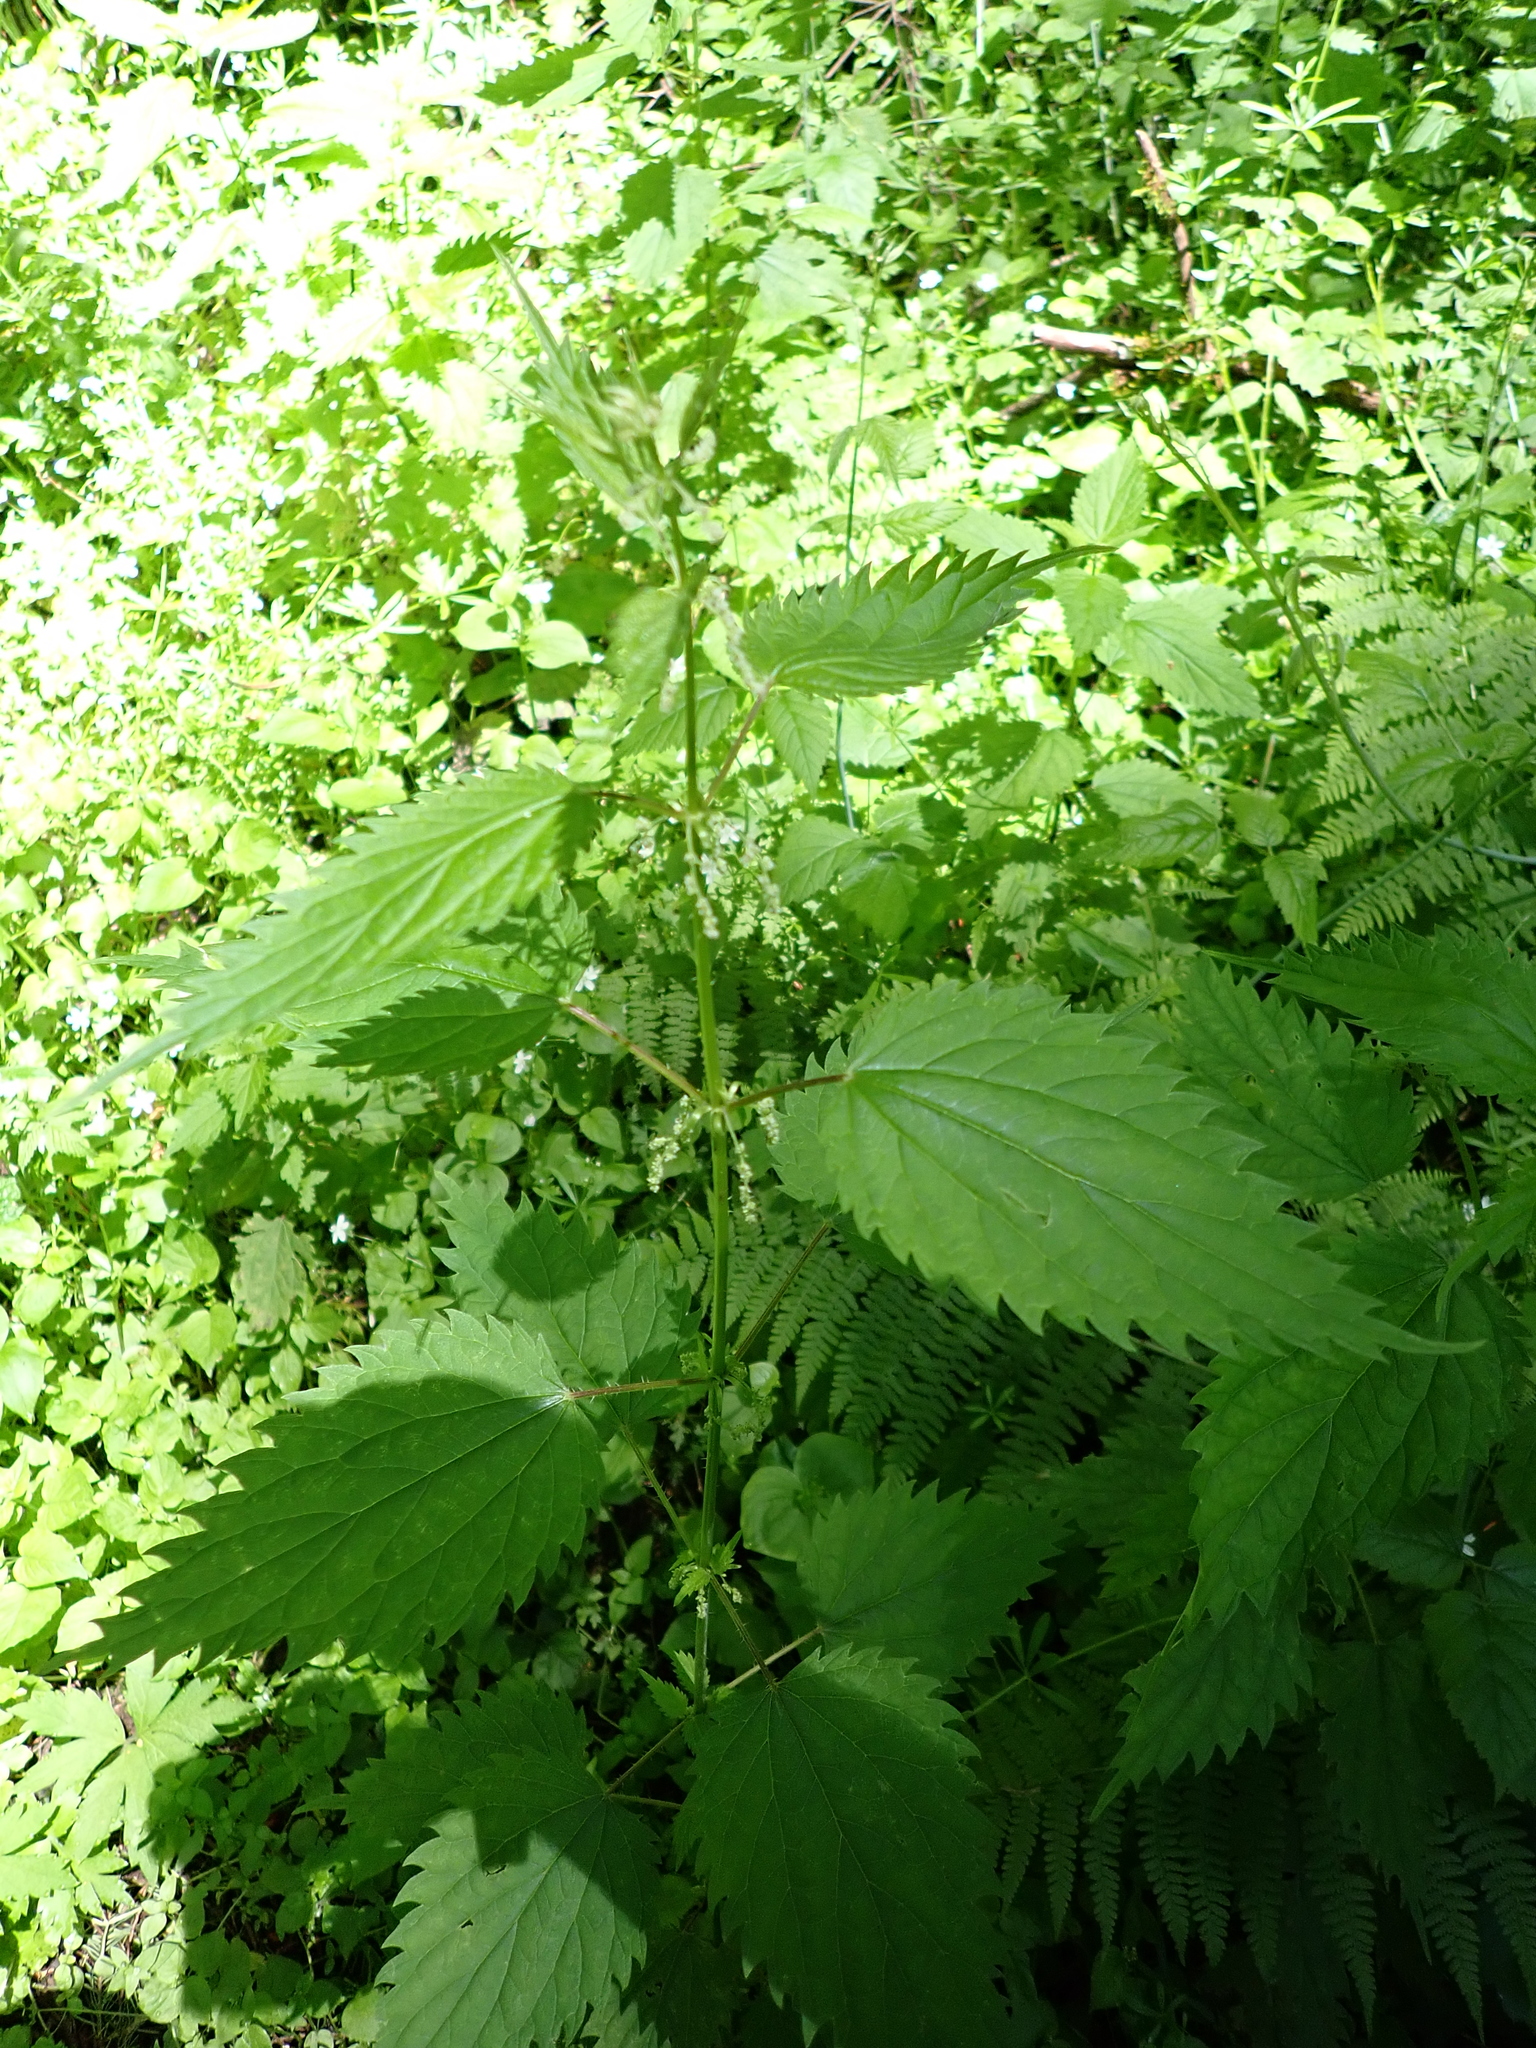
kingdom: Plantae
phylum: Tracheophyta
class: Magnoliopsida
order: Rosales
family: Urticaceae
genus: Urtica
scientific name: Urtica gracilis
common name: Slender stinging nettle
